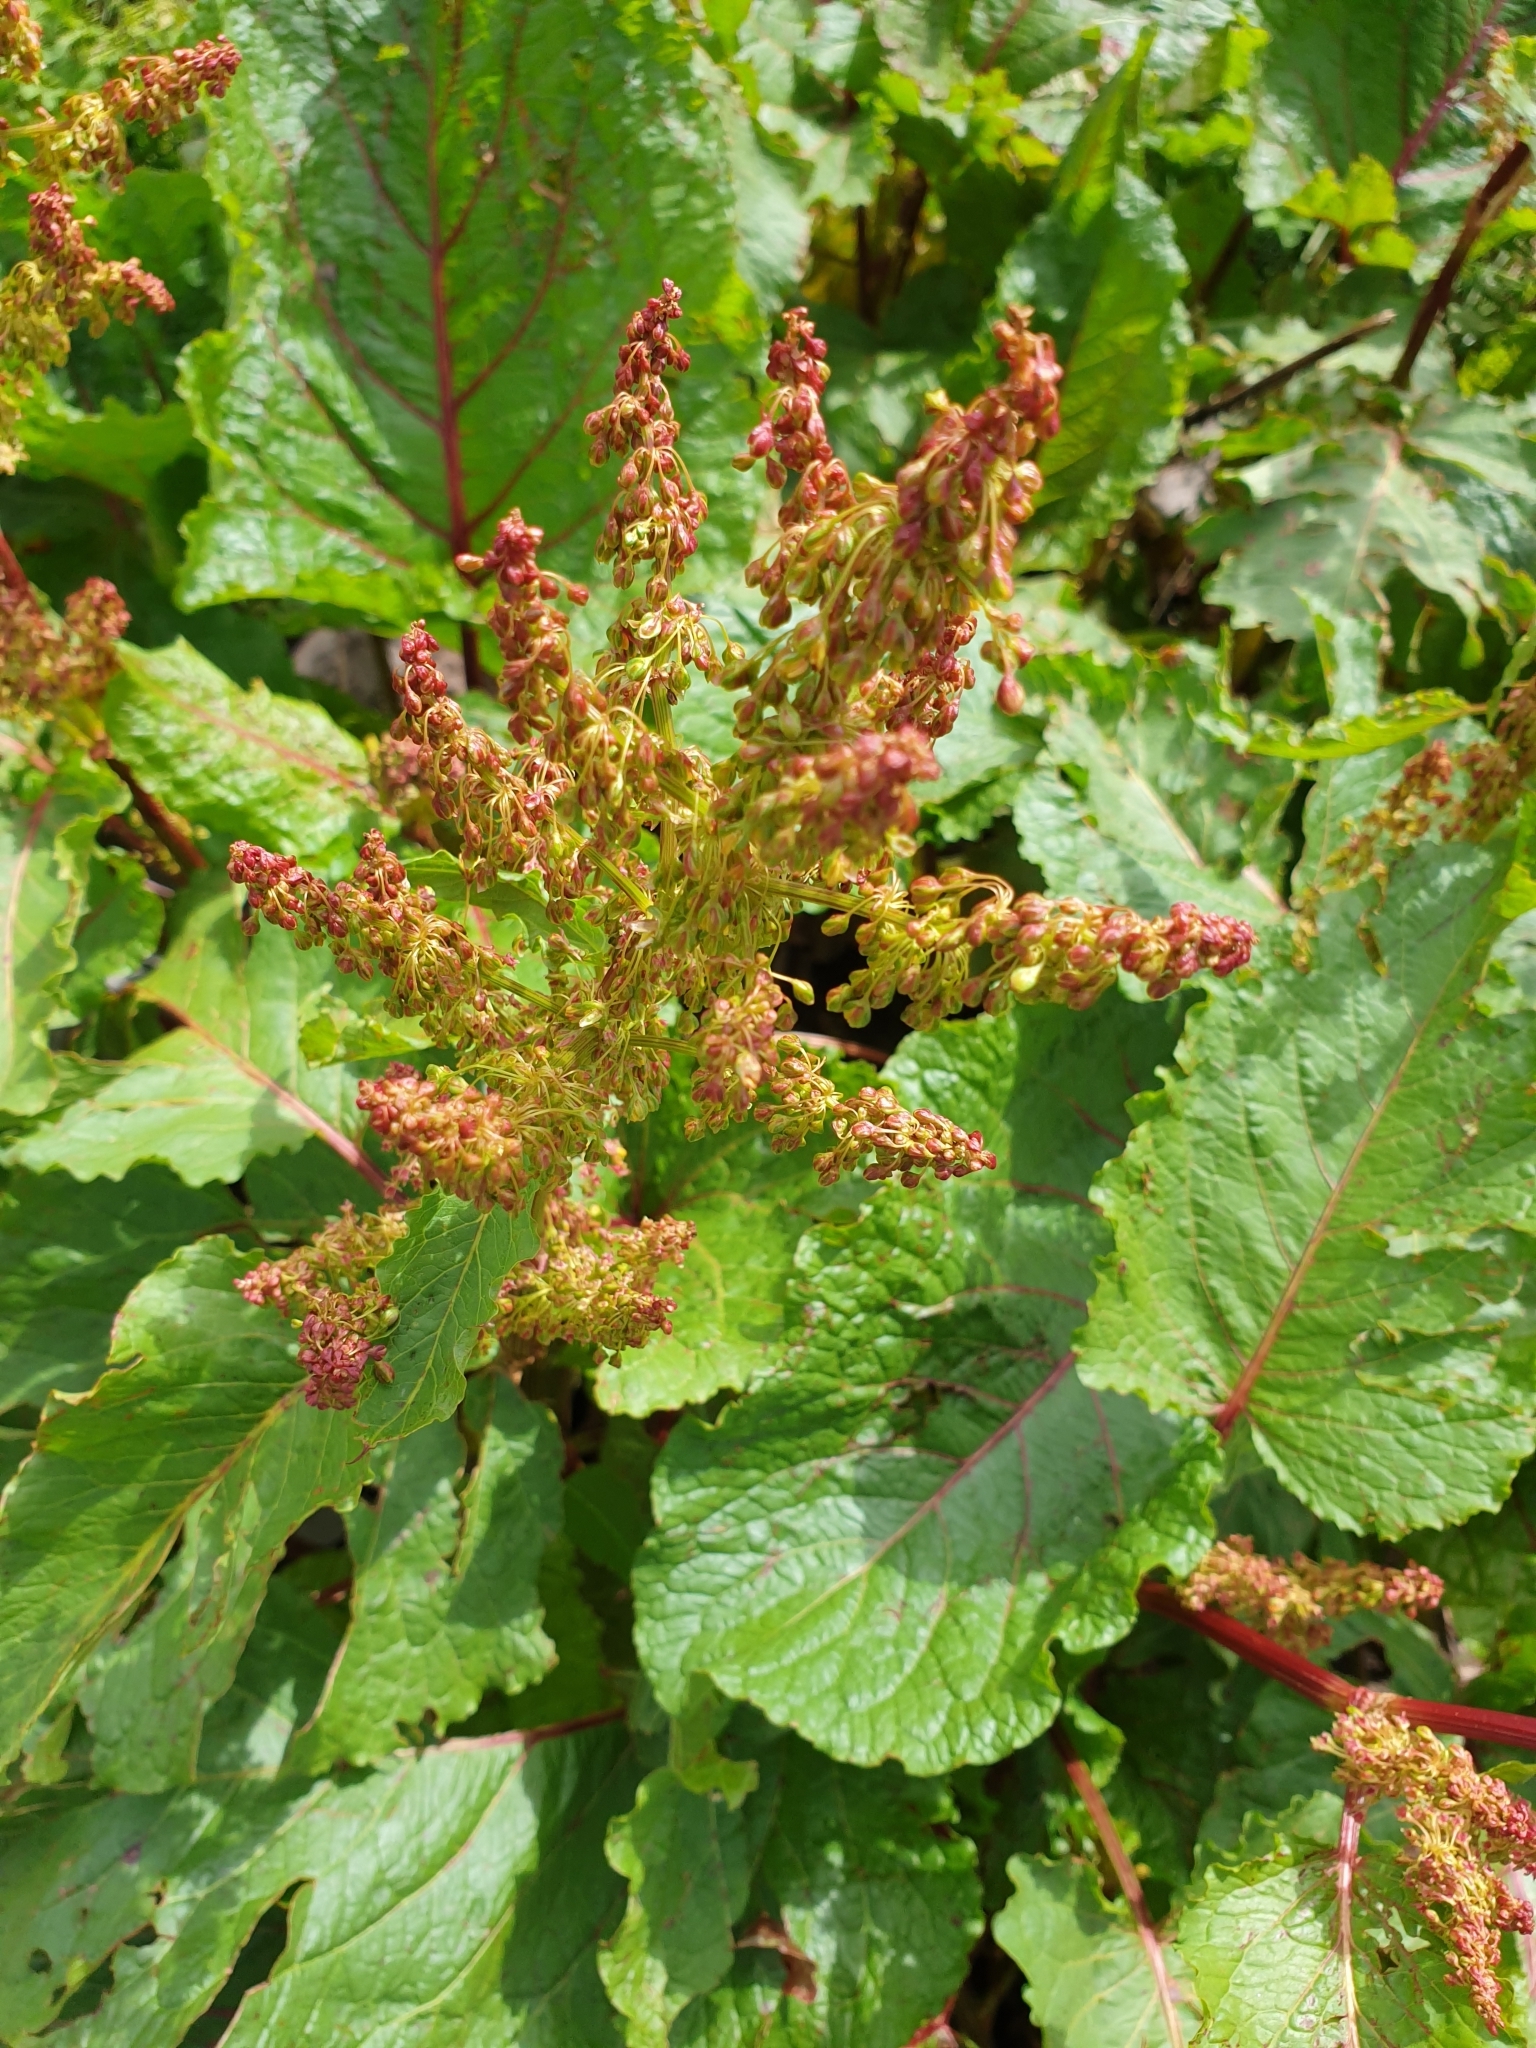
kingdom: Plantae
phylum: Tracheophyta
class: Magnoliopsida
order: Caryophyllales
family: Polygonaceae
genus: Rumex
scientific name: Rumex alpinus
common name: Alpine dock
